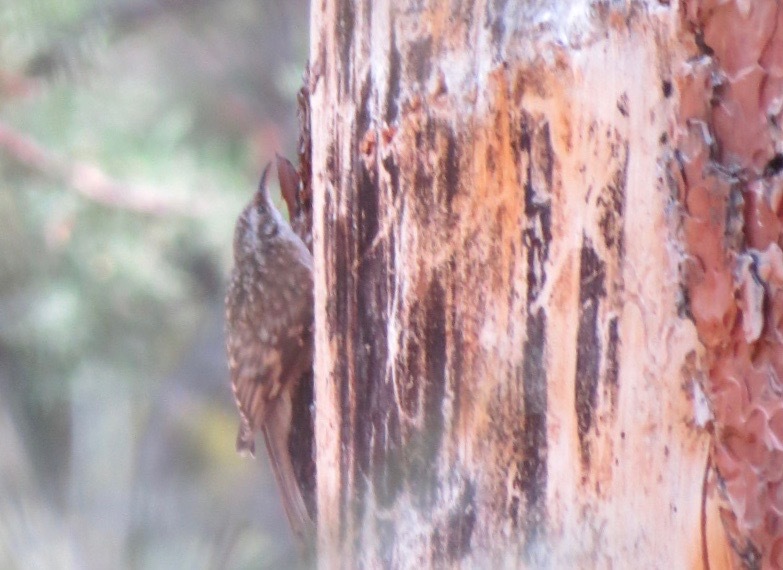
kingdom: Animalia
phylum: Chordata
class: Aves
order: Passeriformes
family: Certhiidae
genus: Certhia
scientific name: Certhia americana
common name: Brown creeper
